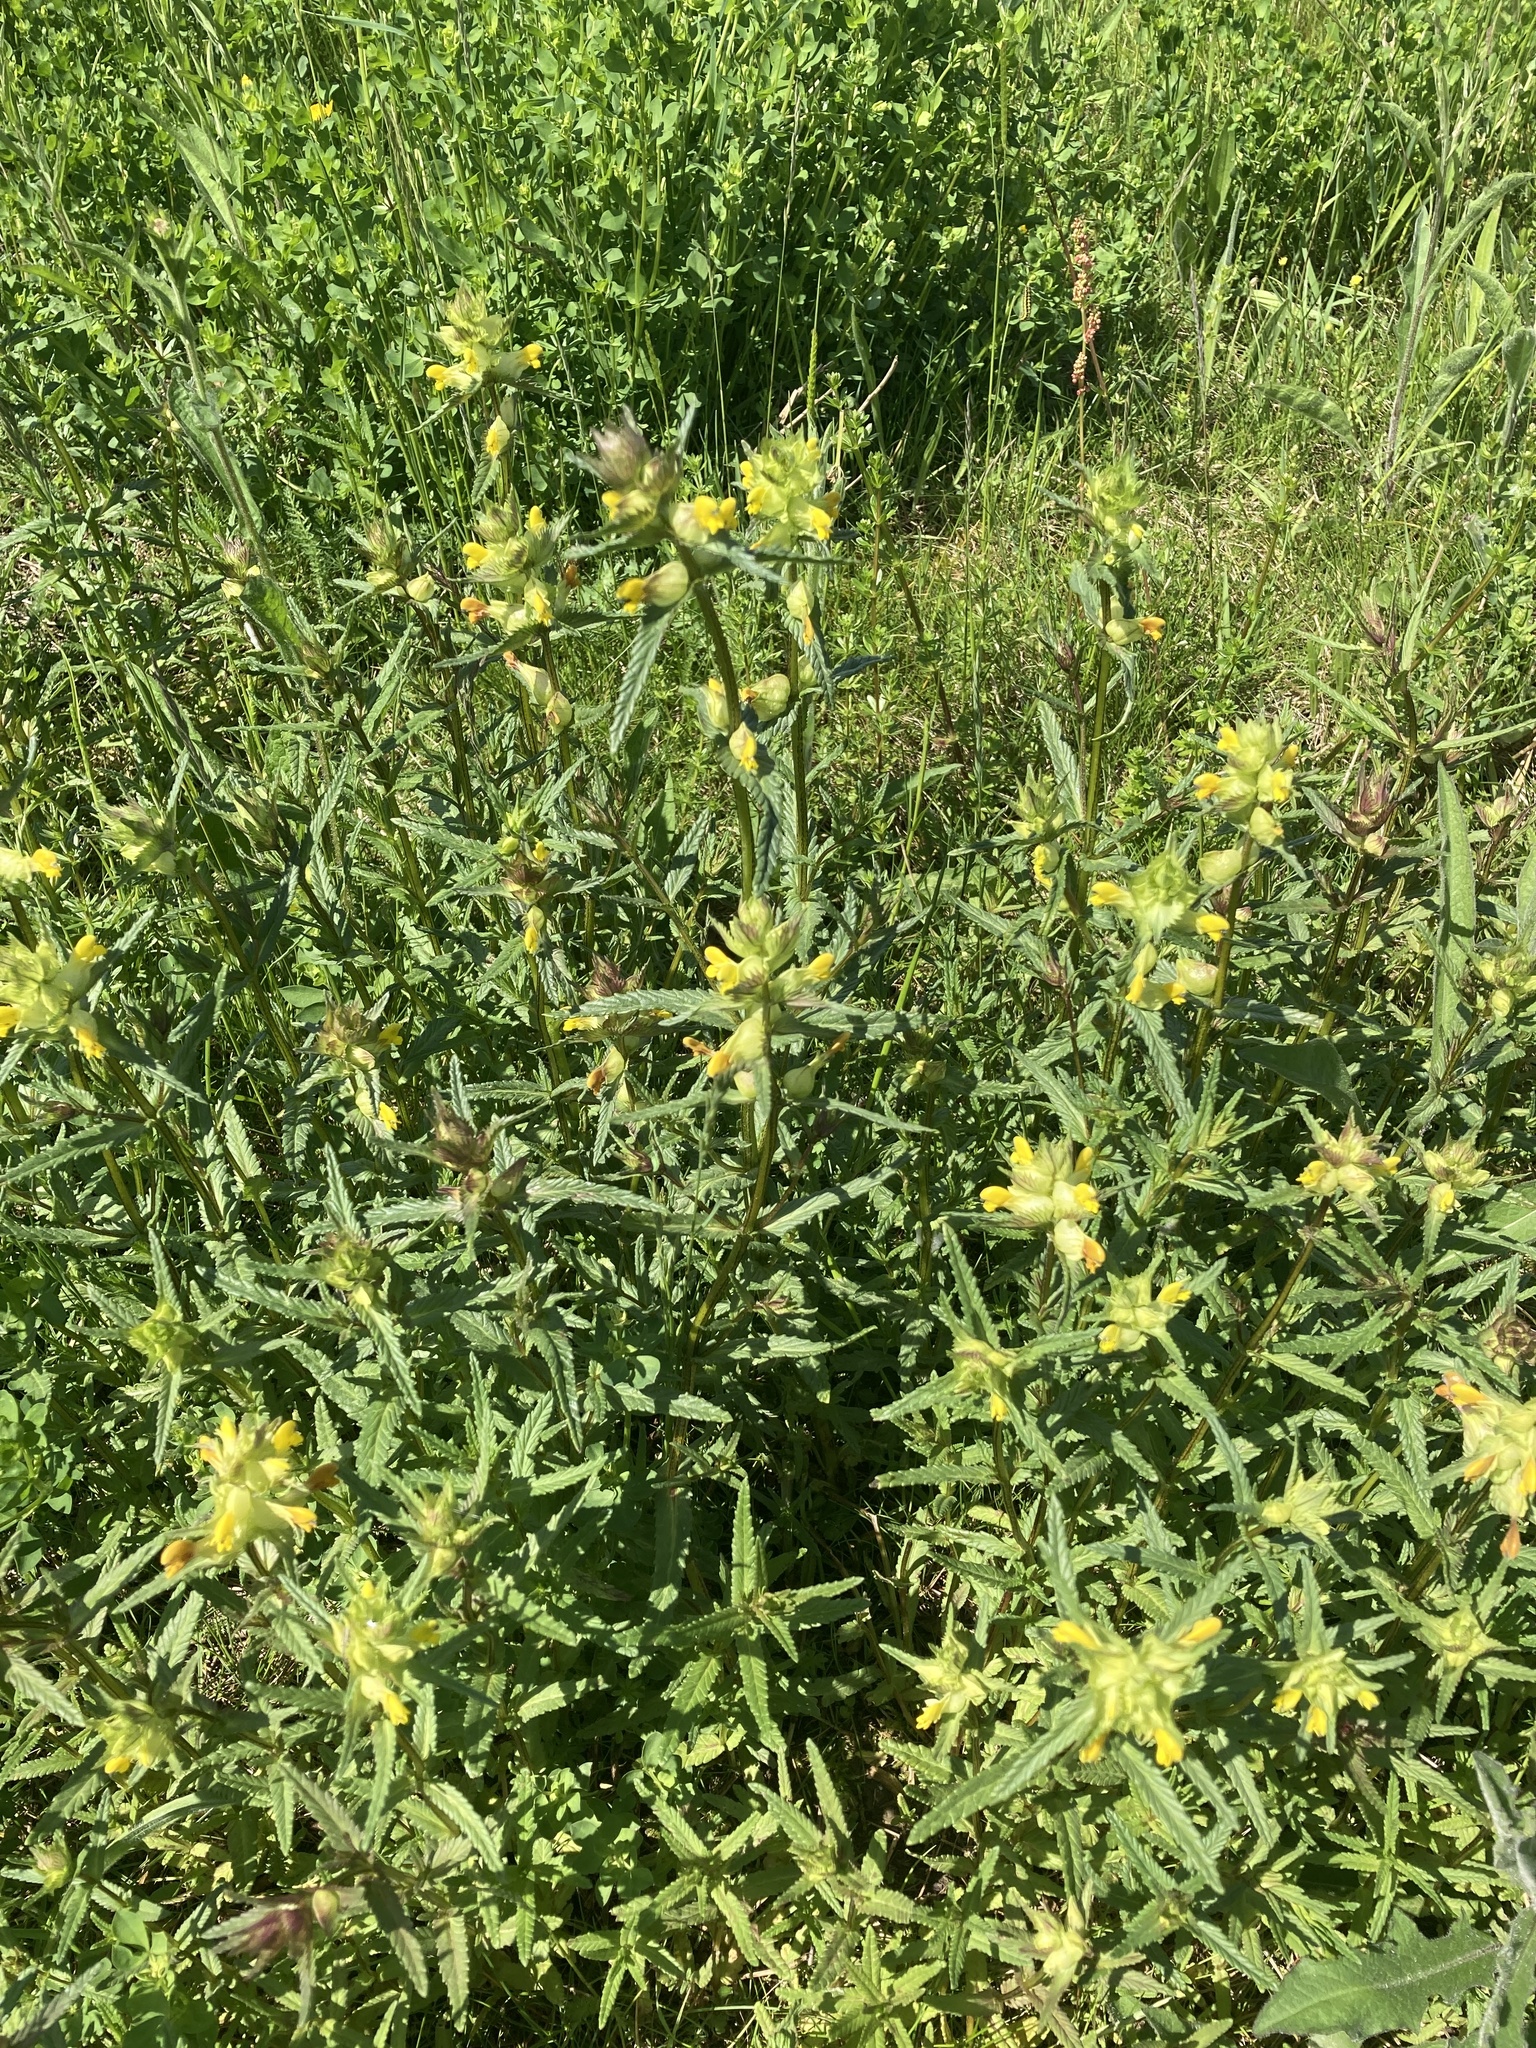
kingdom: Plantae
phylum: Tracheophyta
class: Magnoliopsida
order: Lamiales
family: Orobanchaceae
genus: Rhinanthus
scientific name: Rhinanthus minor
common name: Yellow-rattle
